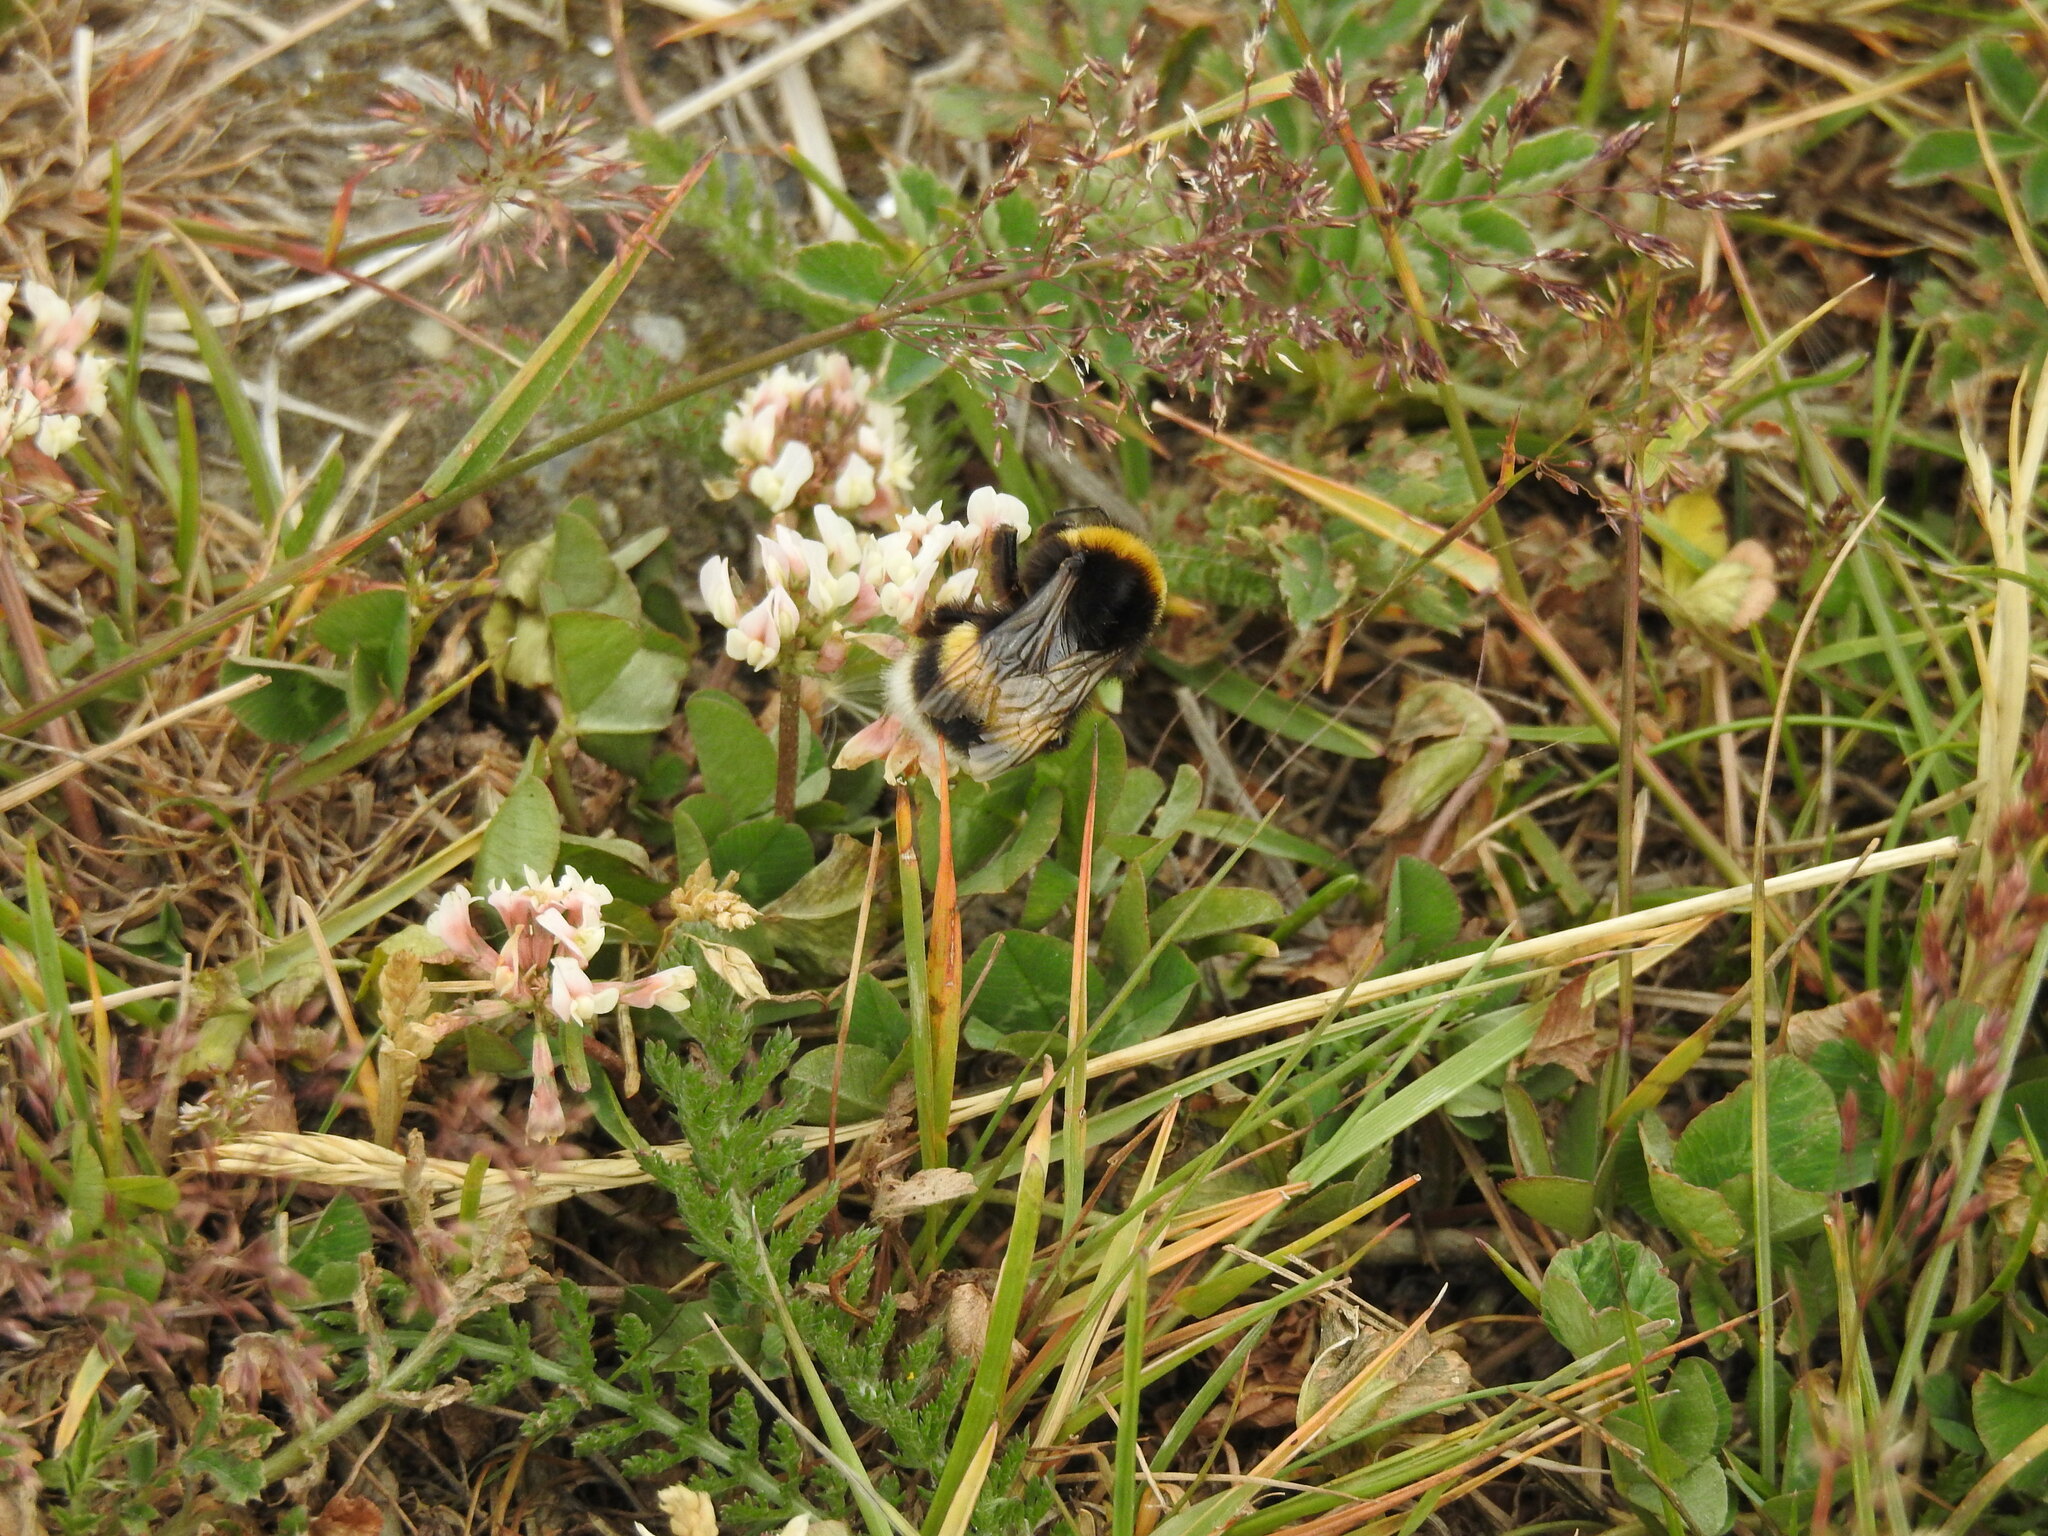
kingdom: Animalia
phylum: Arthropoda
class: Insecta
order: Hymenoptera
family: Apidae
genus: Bombus
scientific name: Bombus terrestris
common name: Buff-tailed bumblebee
